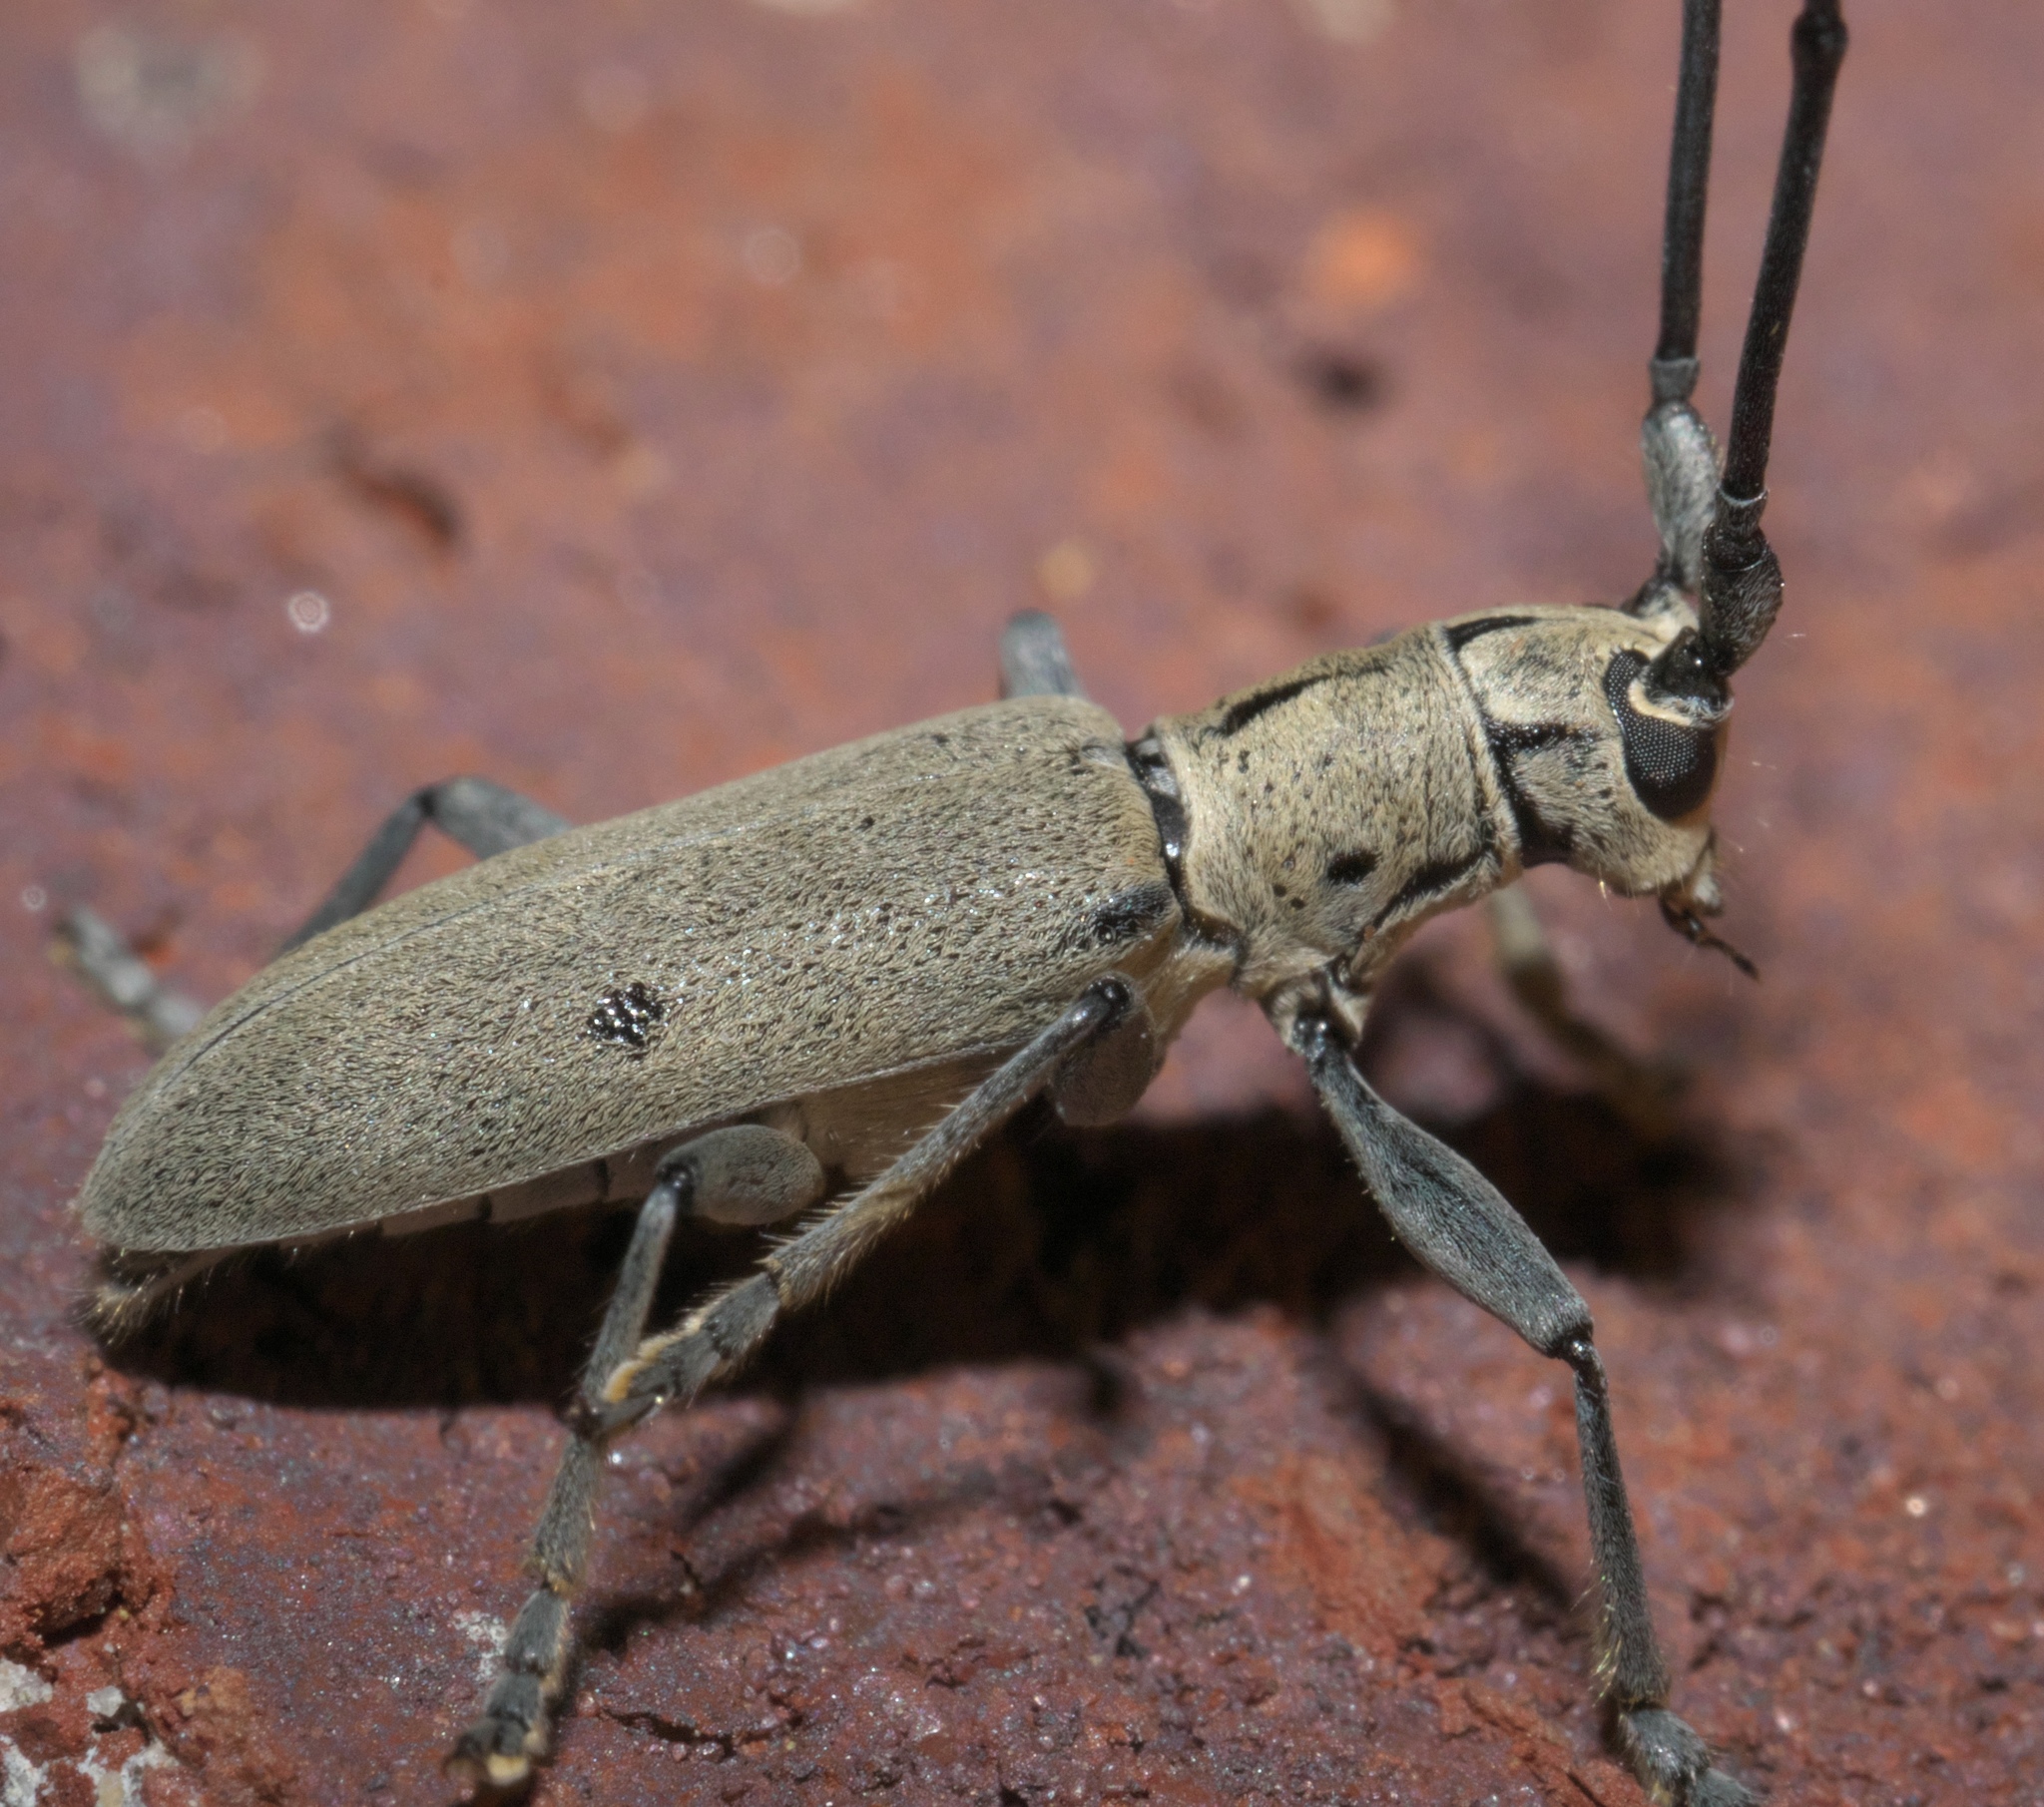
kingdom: Animalia
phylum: Arthropoda
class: Insecta
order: Coleoptera
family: Cerambycidae
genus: Dorcaschema
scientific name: Dorcaschema cinereum
